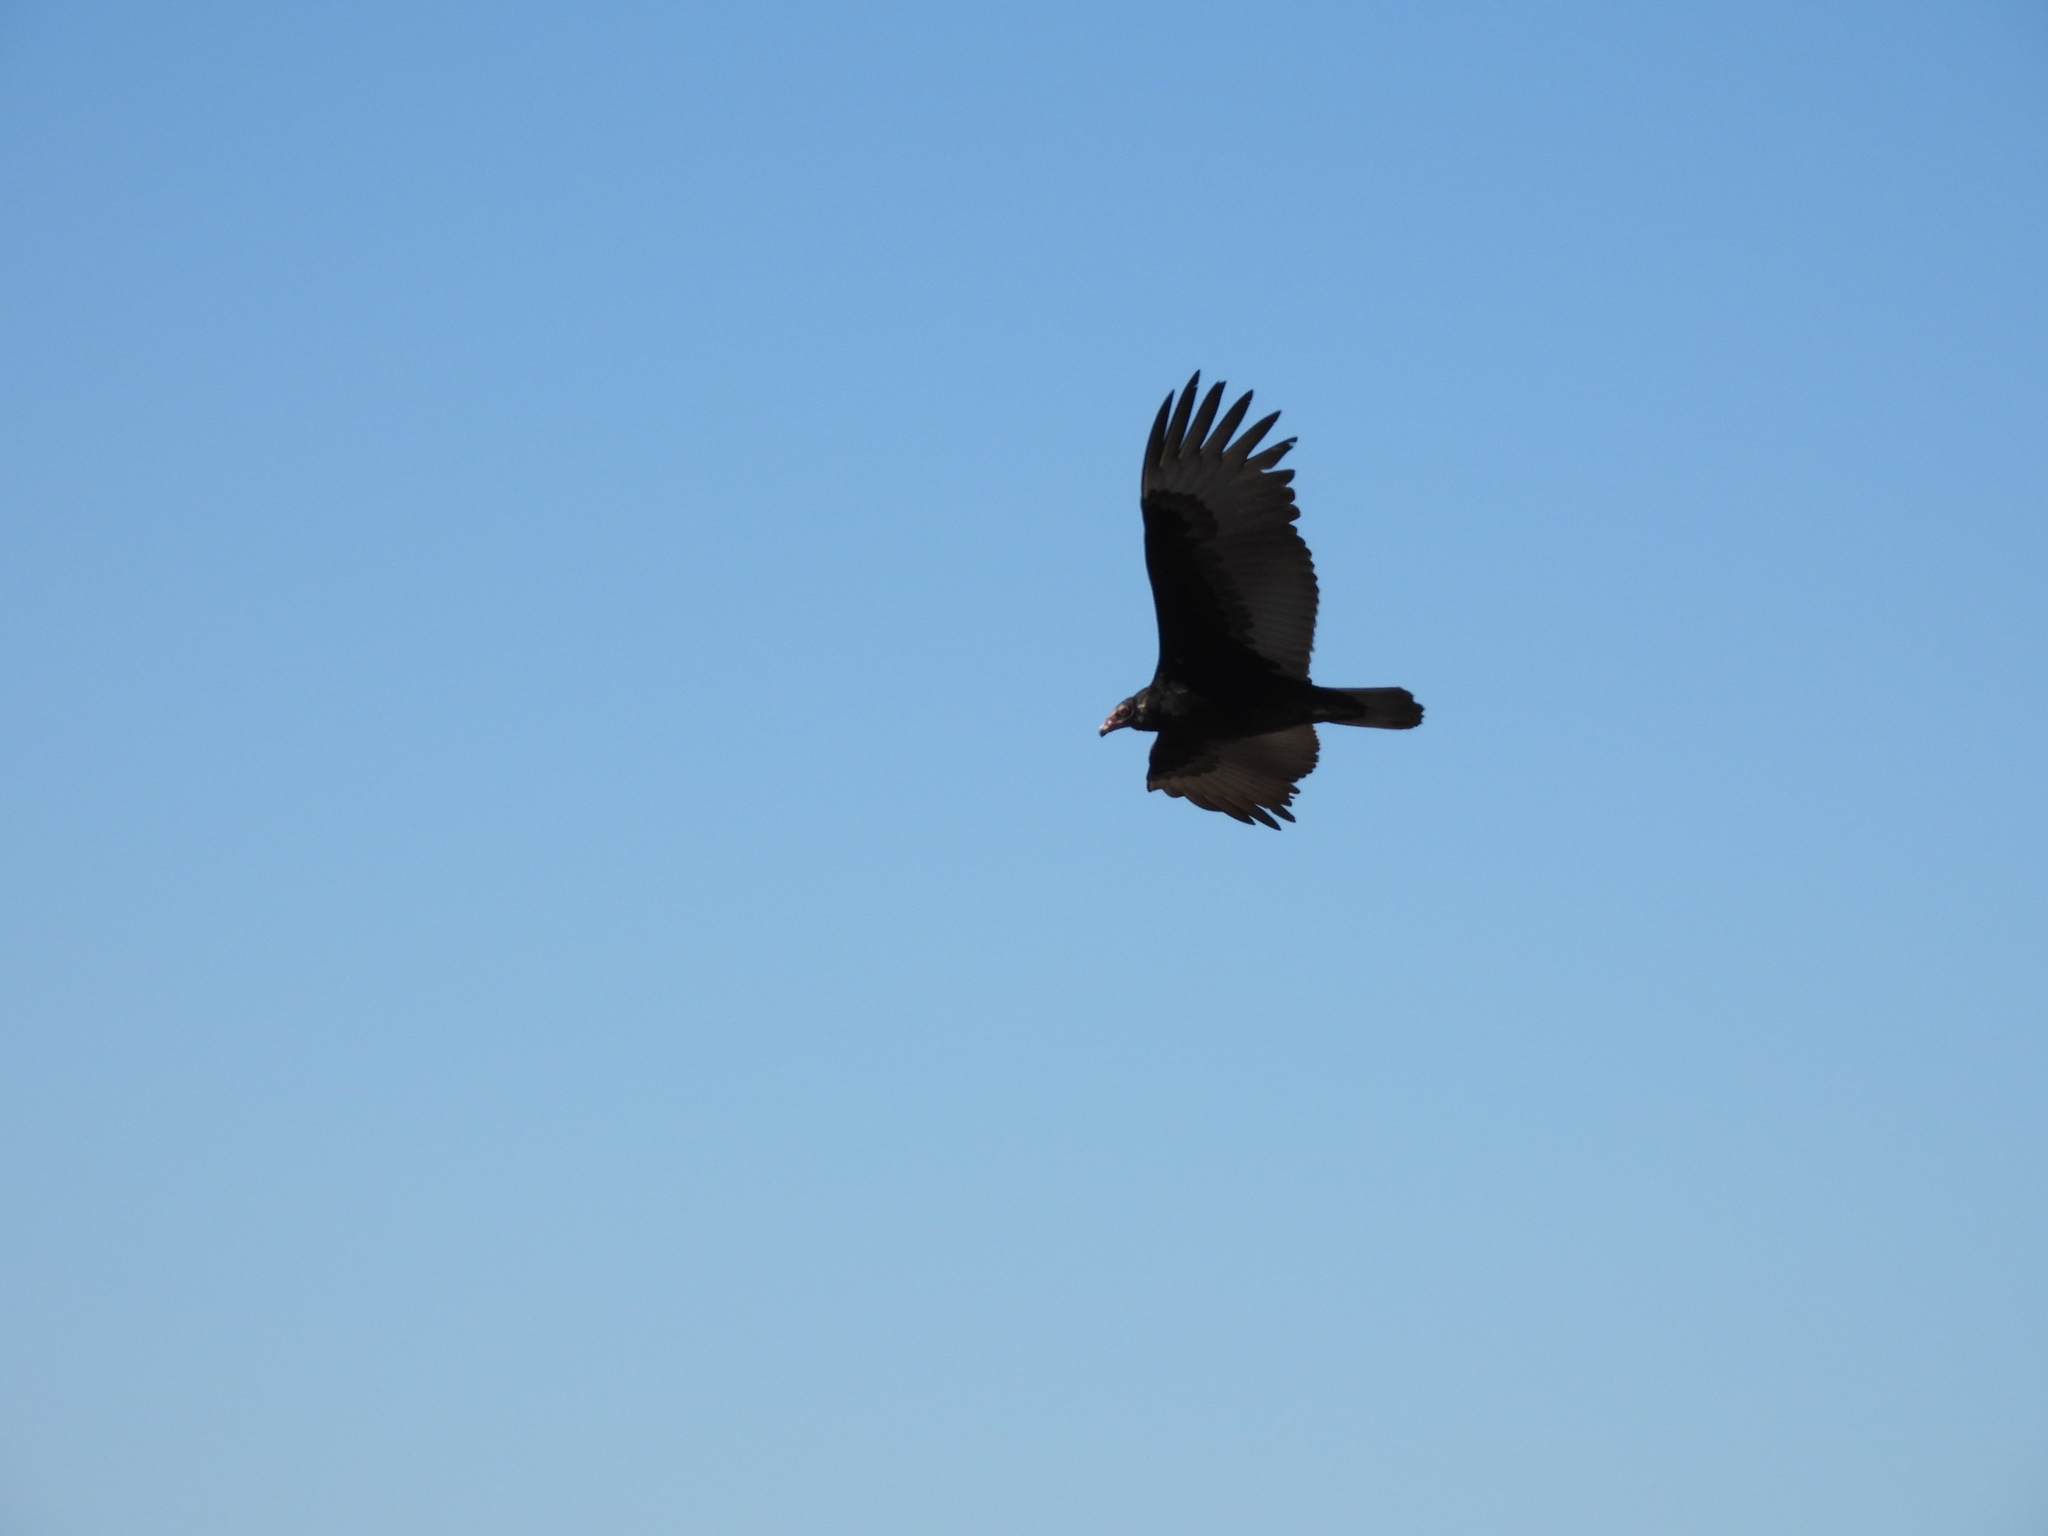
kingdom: Animalia
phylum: Chordata
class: Aves
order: Accipitriformes
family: Cathartidae
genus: Cathartes
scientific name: Cathartes aura
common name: Turkey vulture
